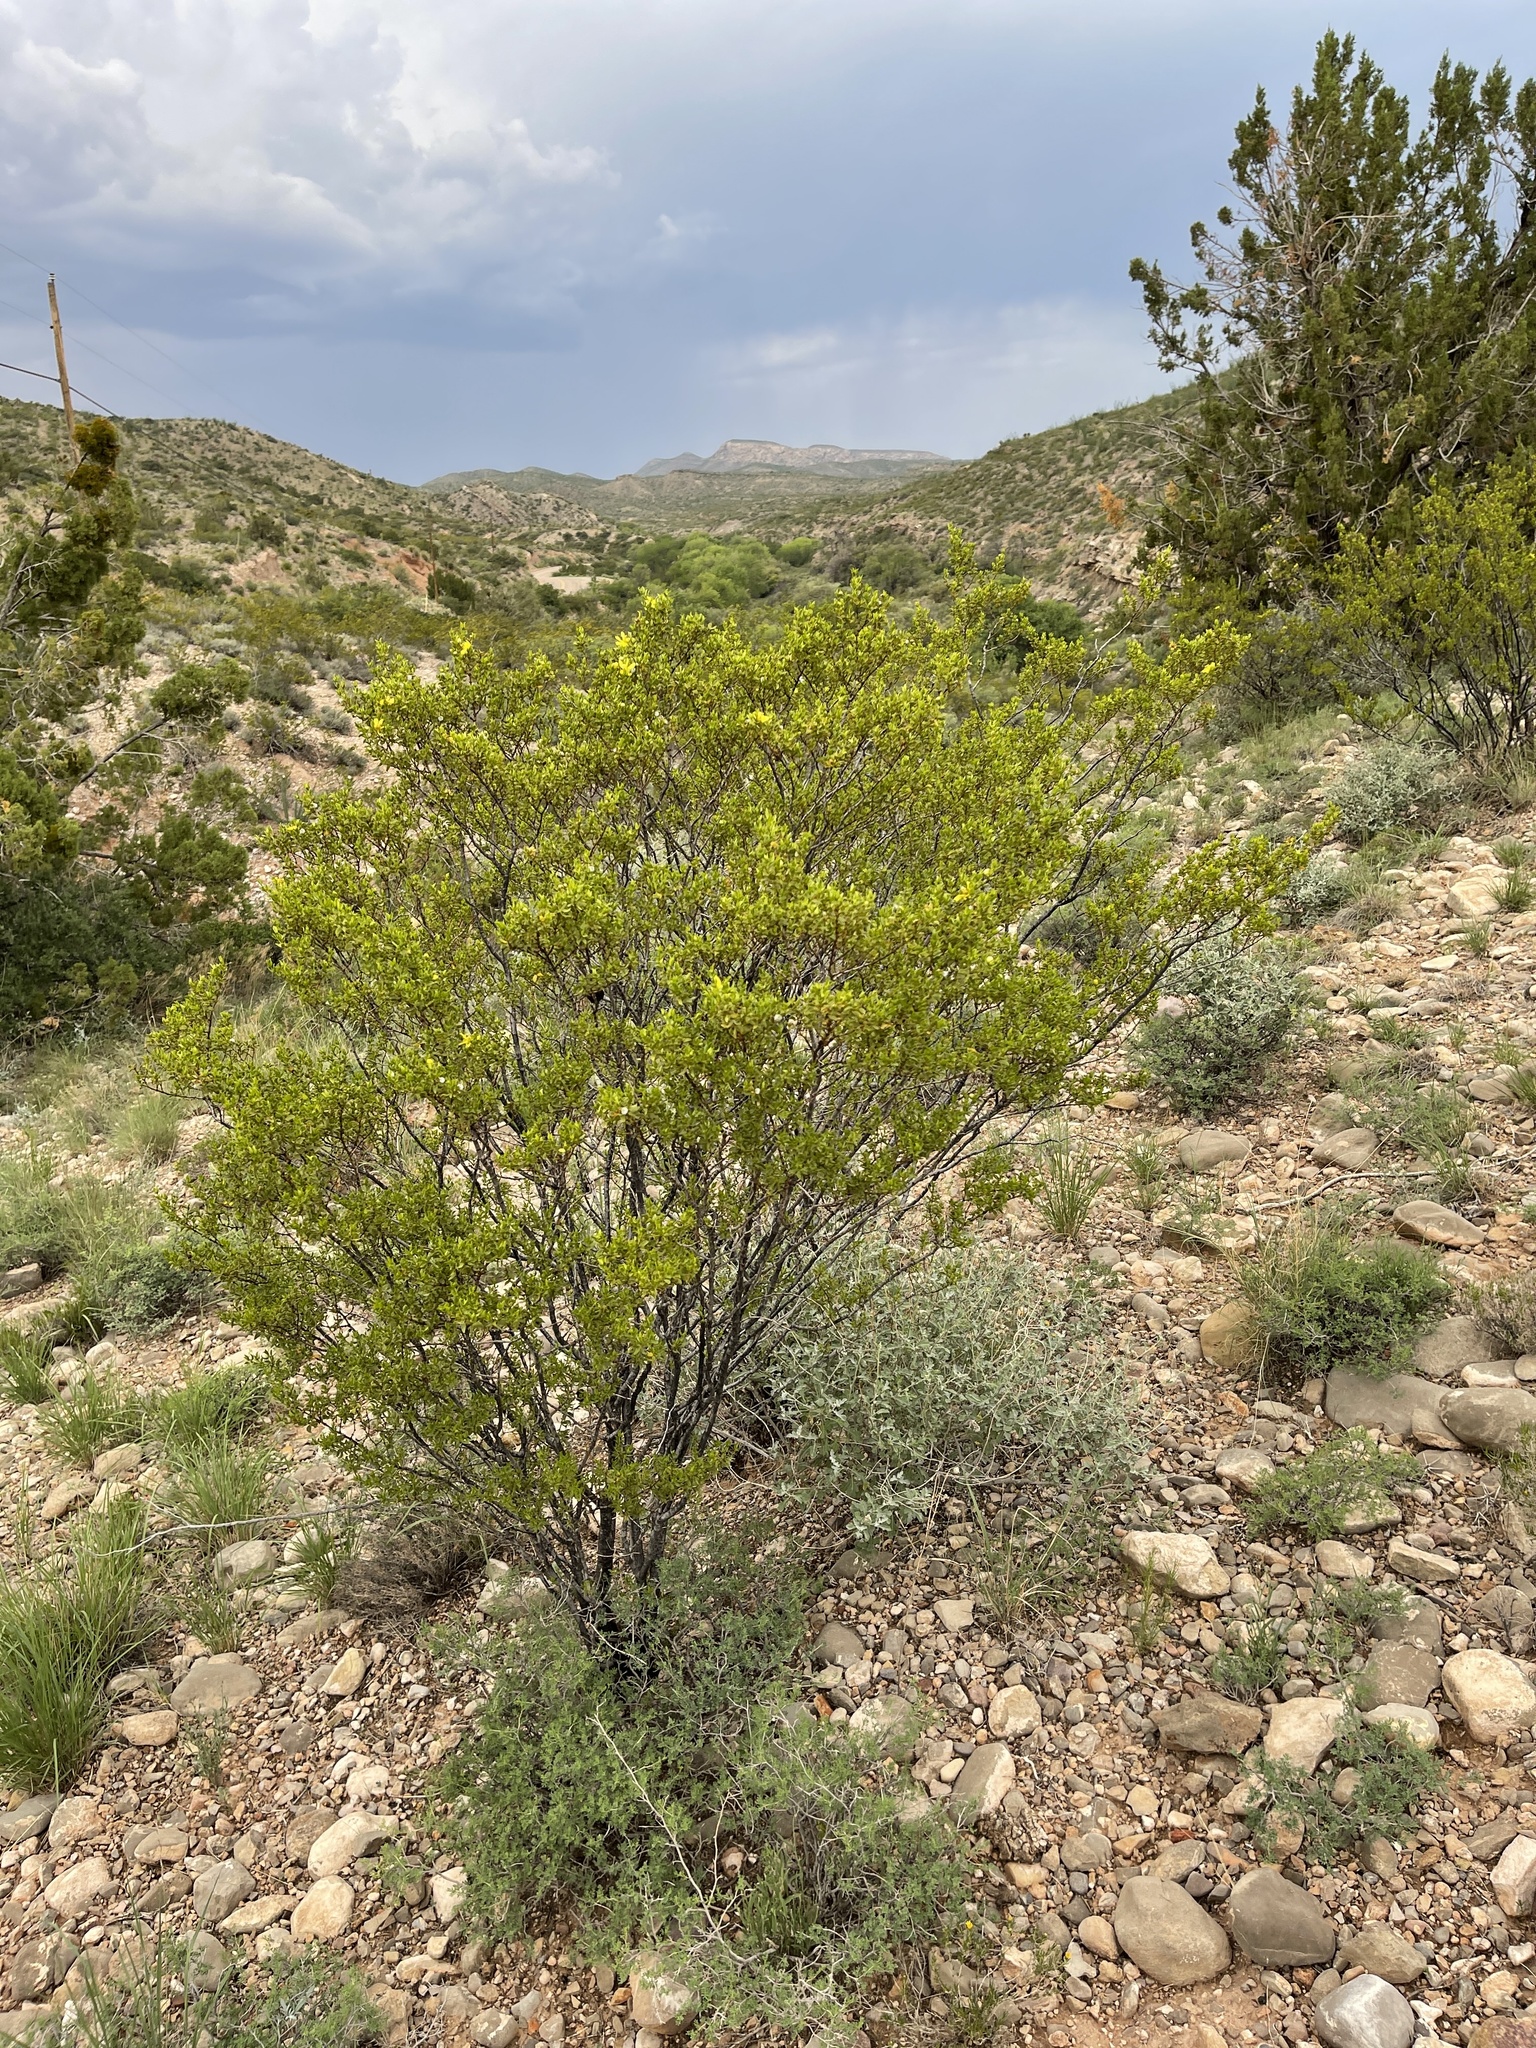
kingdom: Plantae
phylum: Tracheophyta
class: Magnoliopsida
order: Zygophyllales
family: Zygophyllaceae
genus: Larrea
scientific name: Larrea tridentata
